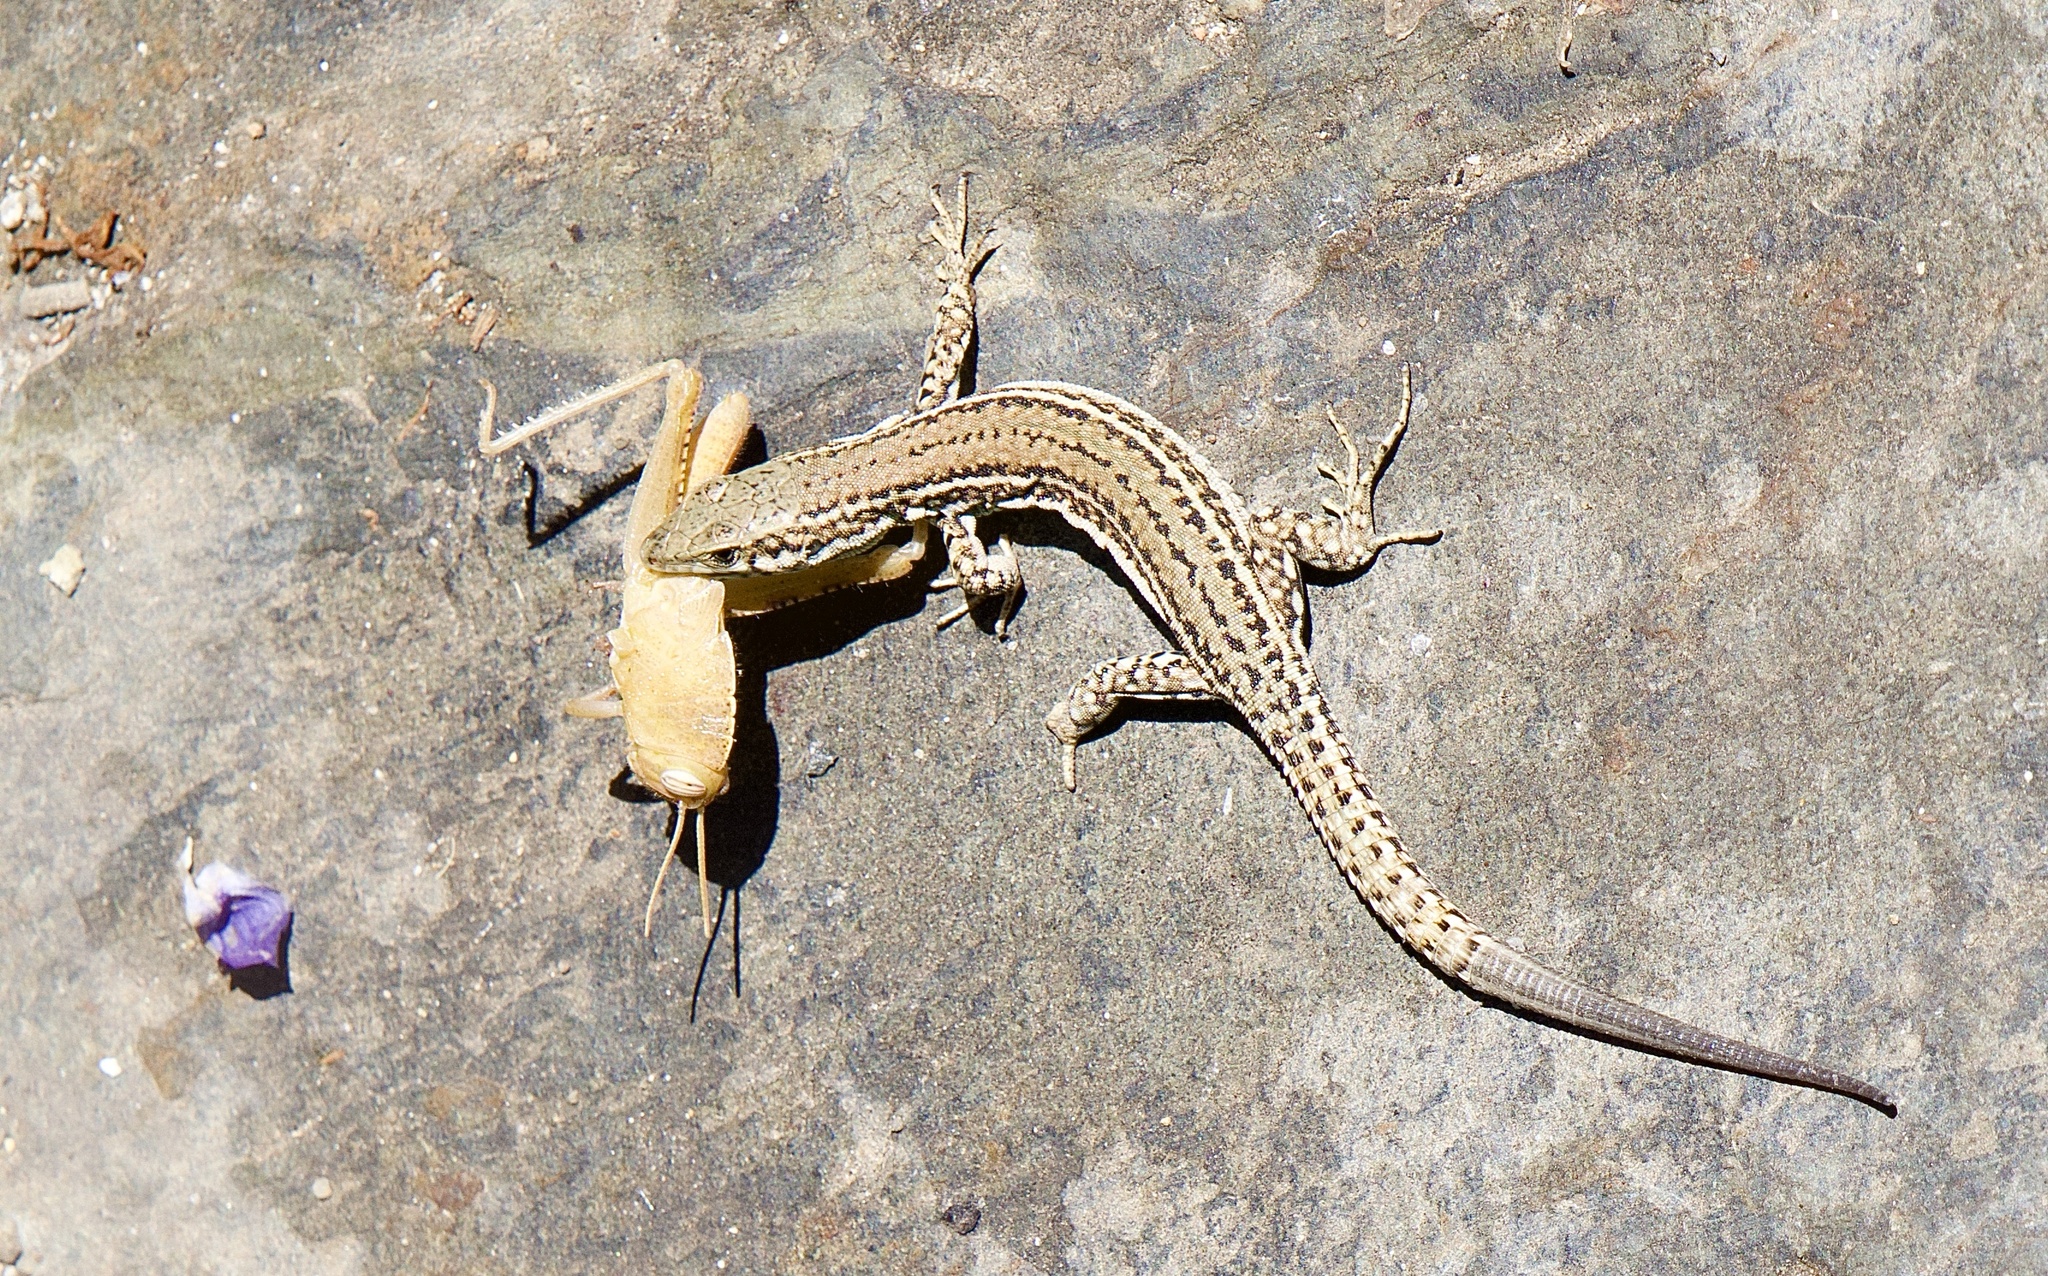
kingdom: Animalia
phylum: Chordata
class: Squamata
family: Lacertidae
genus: Podarcis
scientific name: Podarcis liolepis
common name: Catalonian wall lizard
